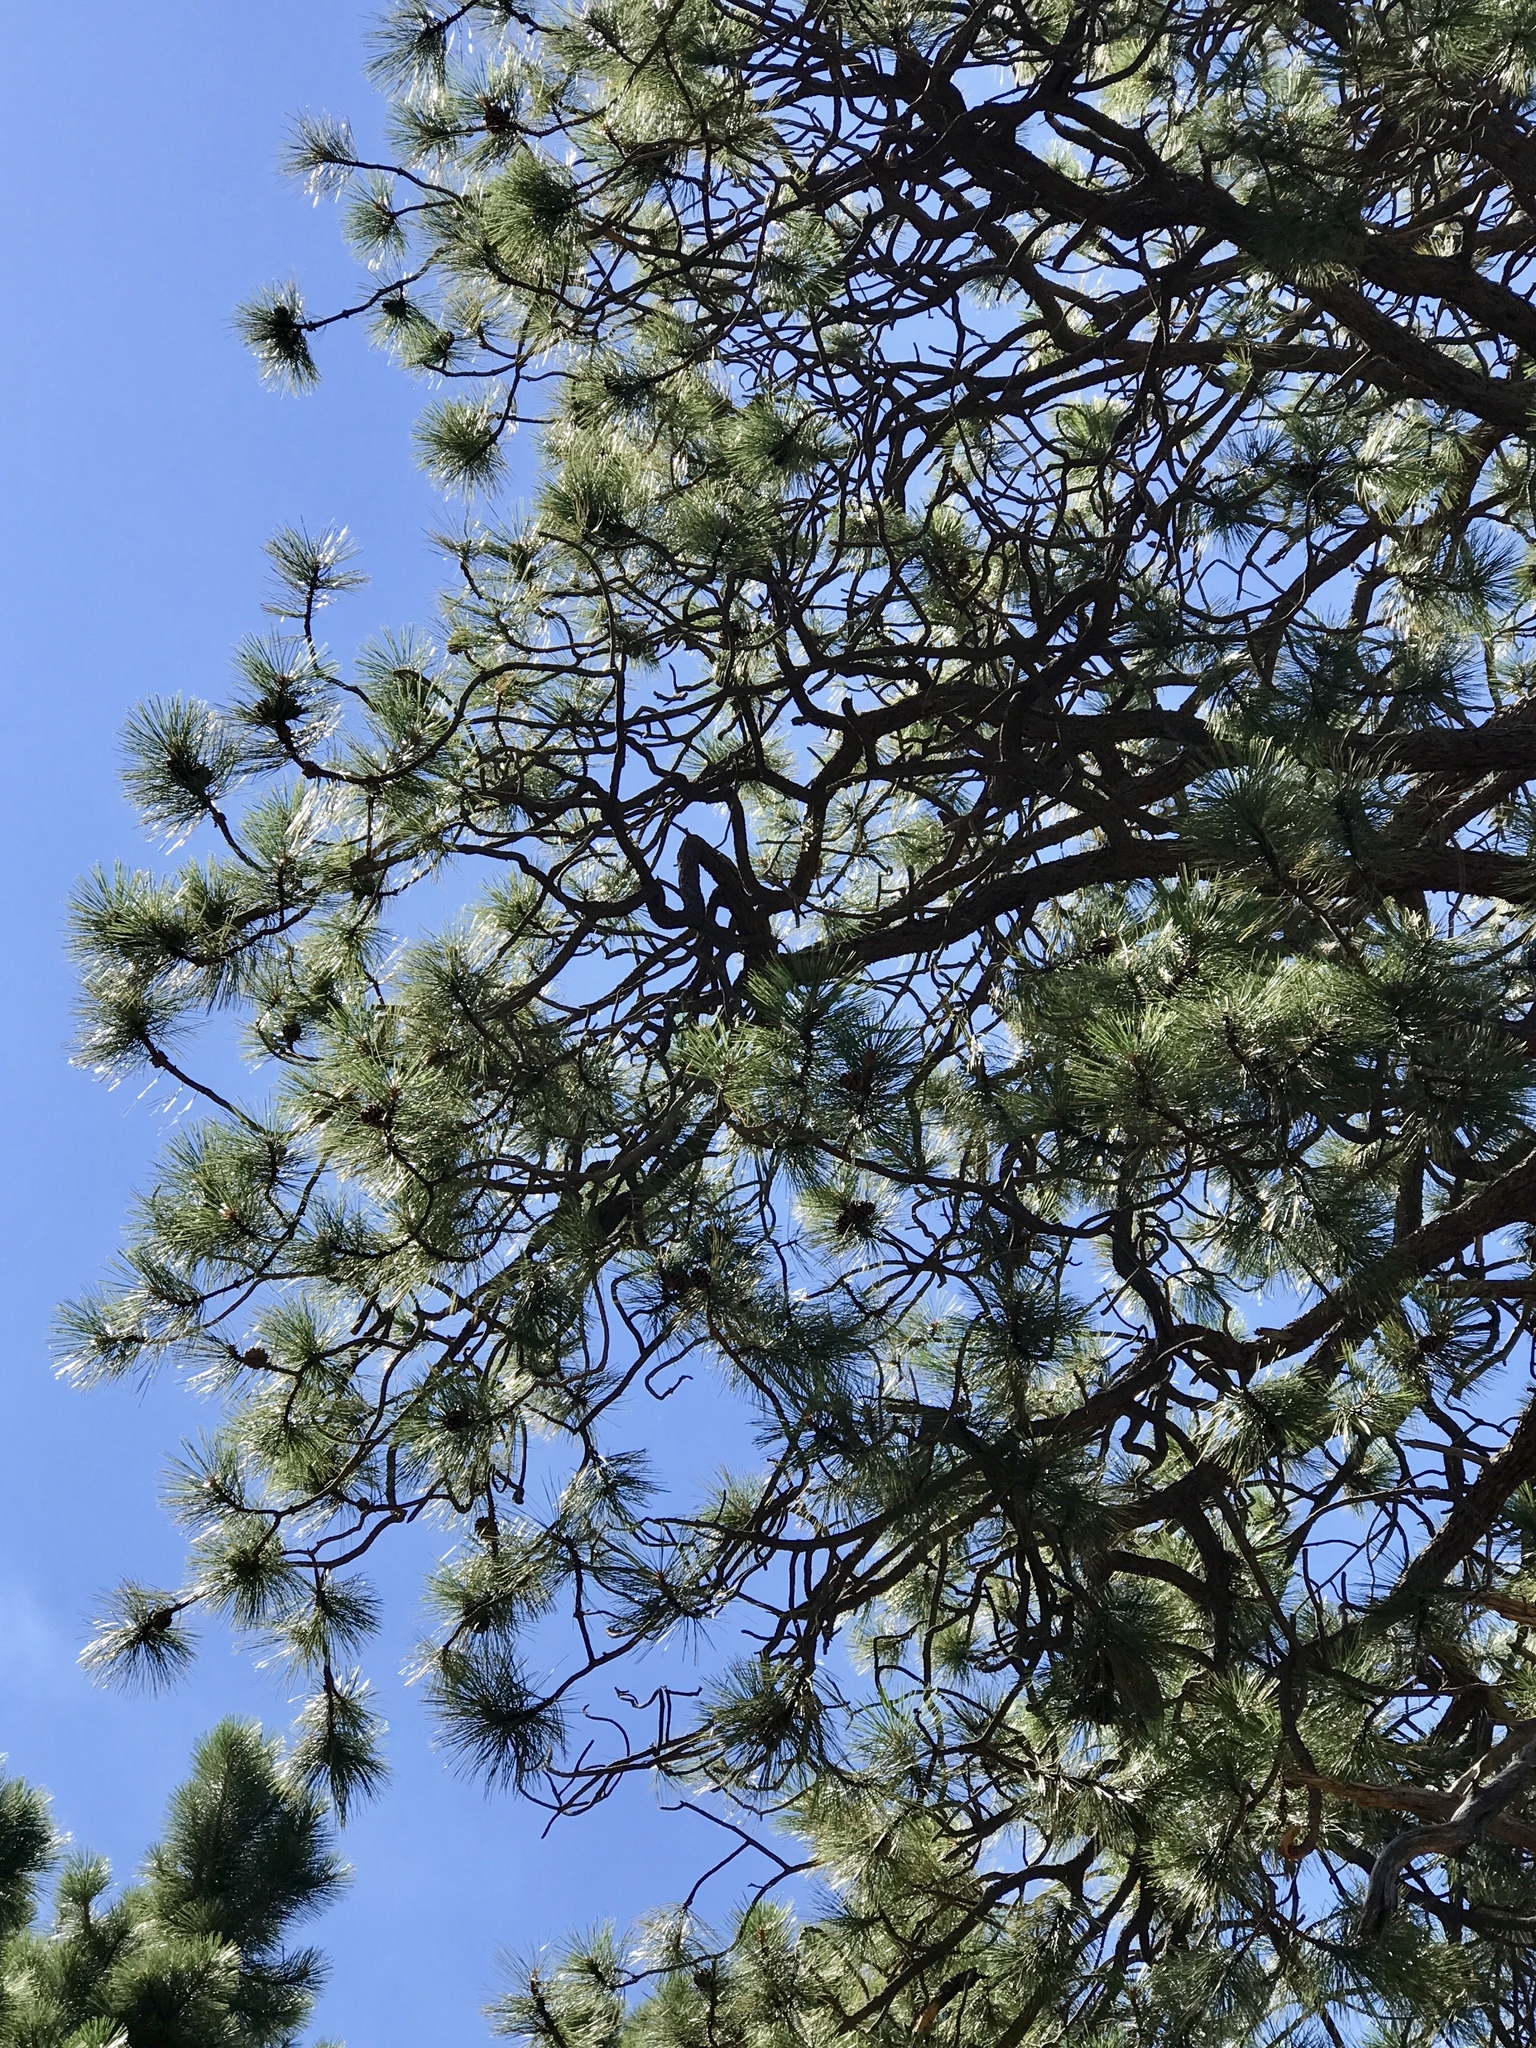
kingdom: Plantae
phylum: Tracheophyta
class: Pinopsida
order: Pinales
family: Pinaceae
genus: Pinus
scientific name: Pinus ponderosa
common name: Western yellow-pine
